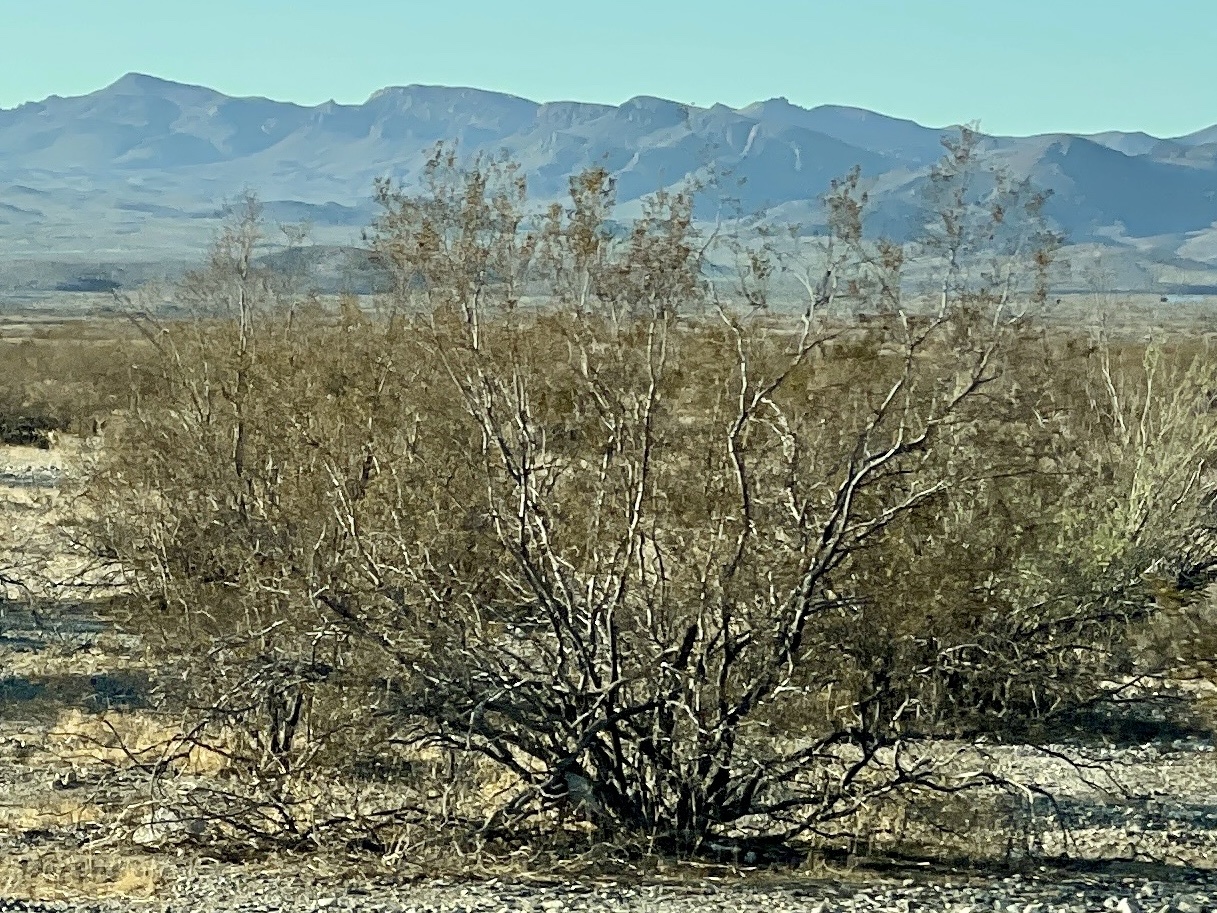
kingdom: Plantae
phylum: Tracheophyta
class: Magnoliopsida
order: Zygophyllales
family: Zygophyllaceae
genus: Larrea
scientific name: Larrea tridentata
